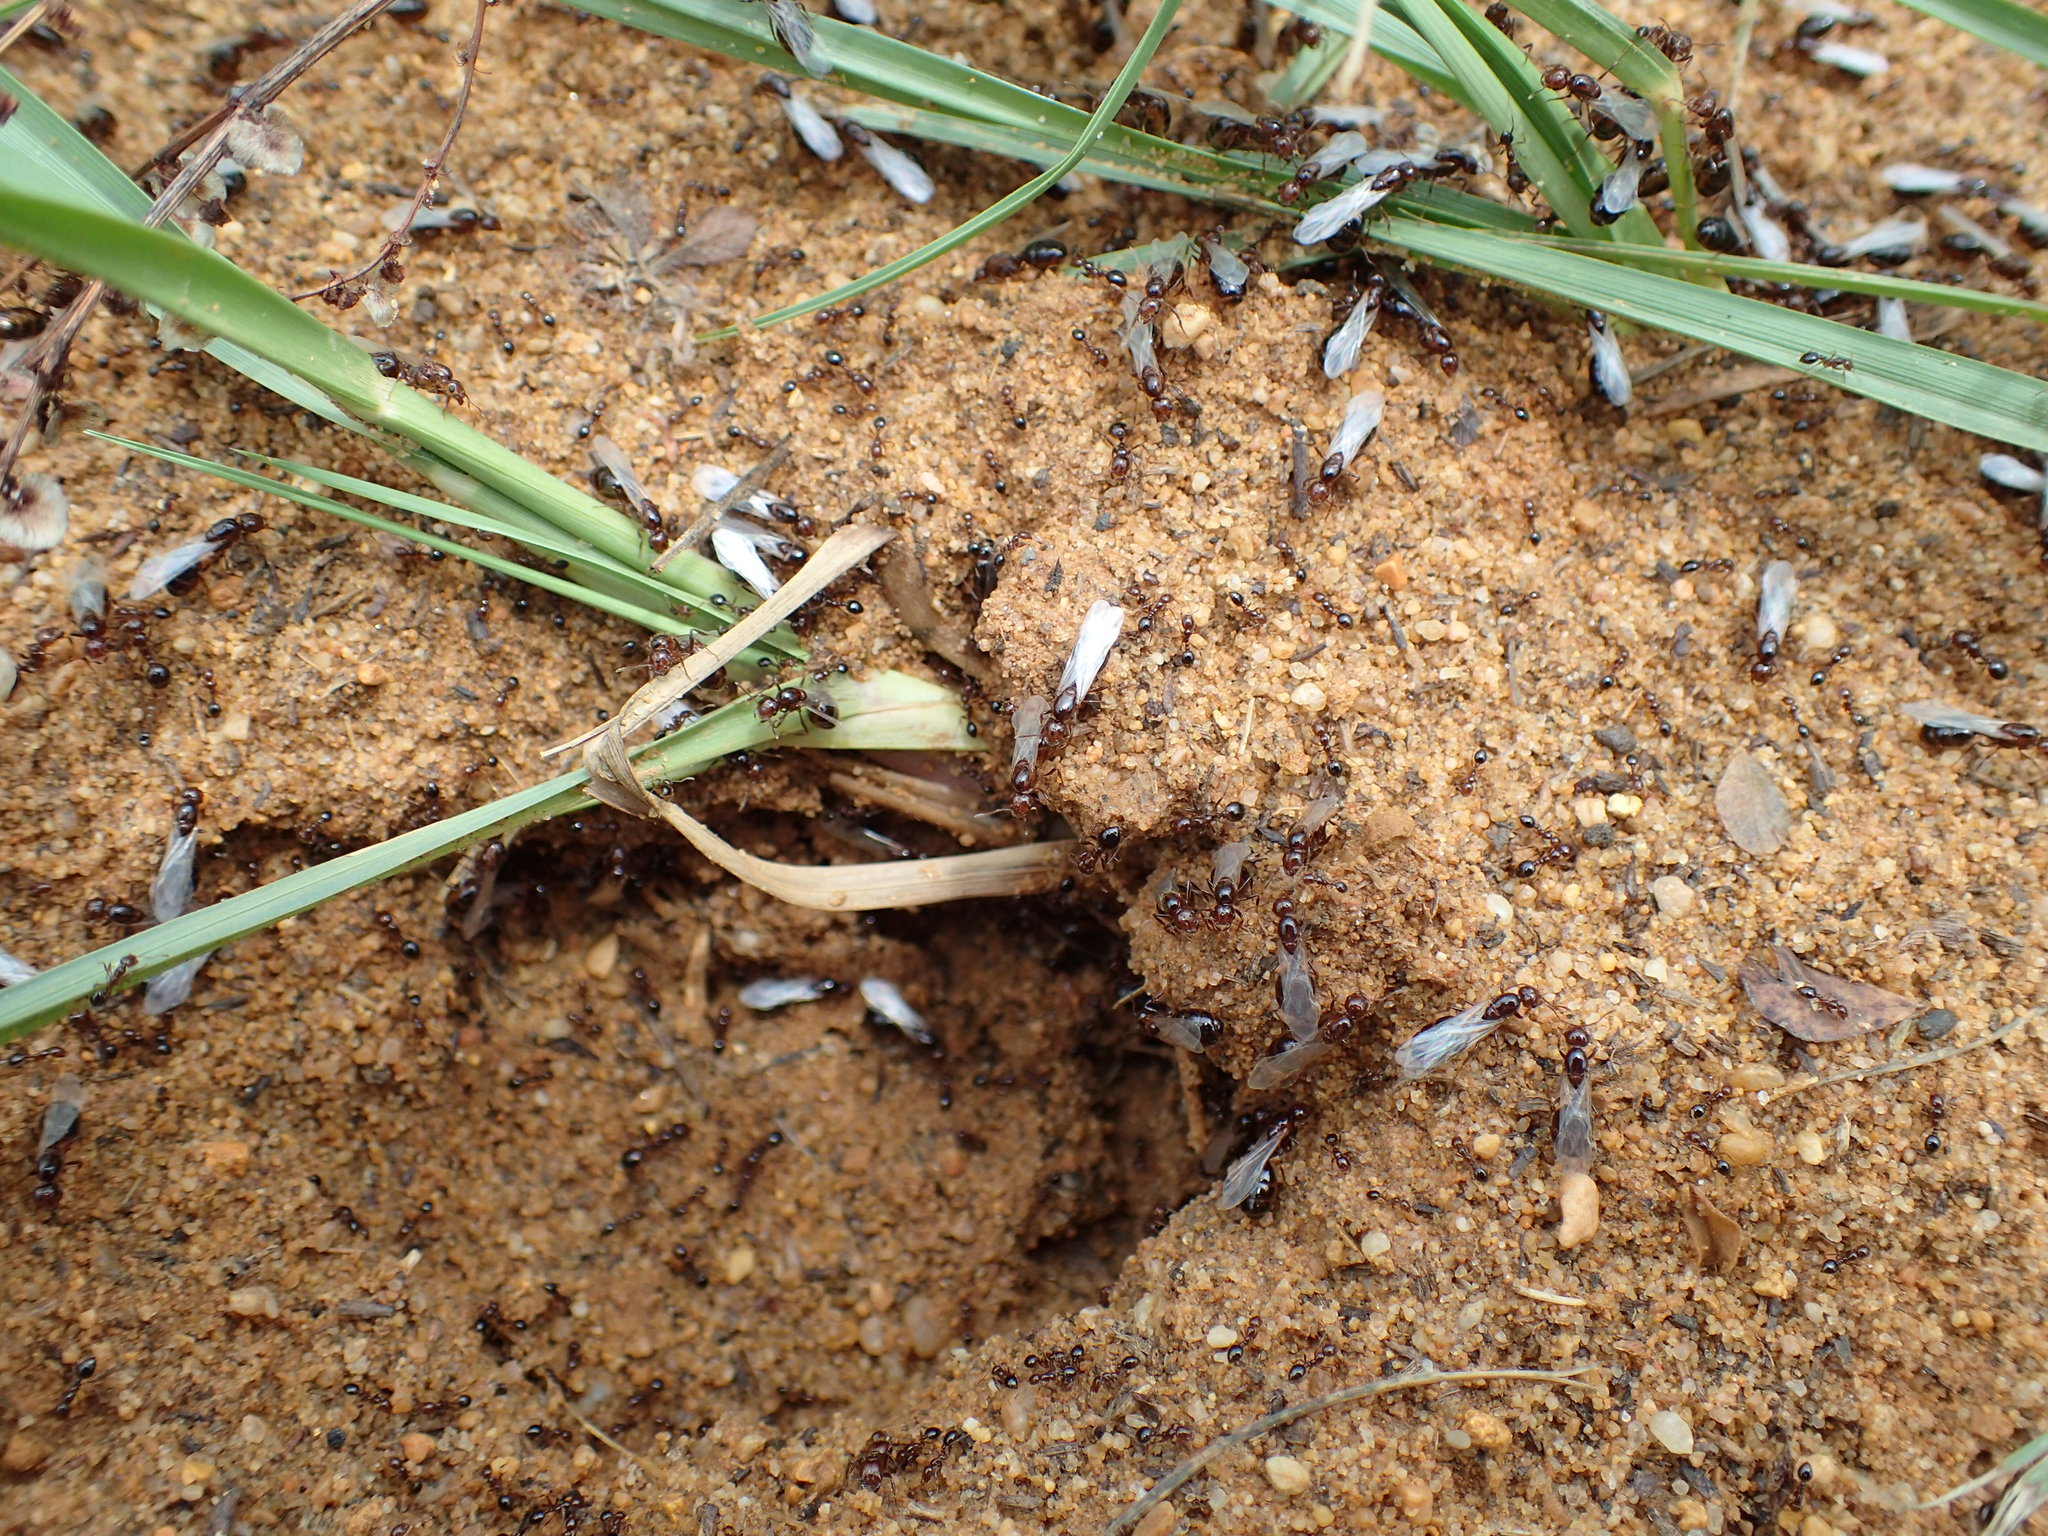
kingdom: Animalia
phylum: Arthropoda
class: Insecta
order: Hymenoptera
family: Formicidae
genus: Solenopsis
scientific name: Solenopsis invicta
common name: Red imported fire ant
